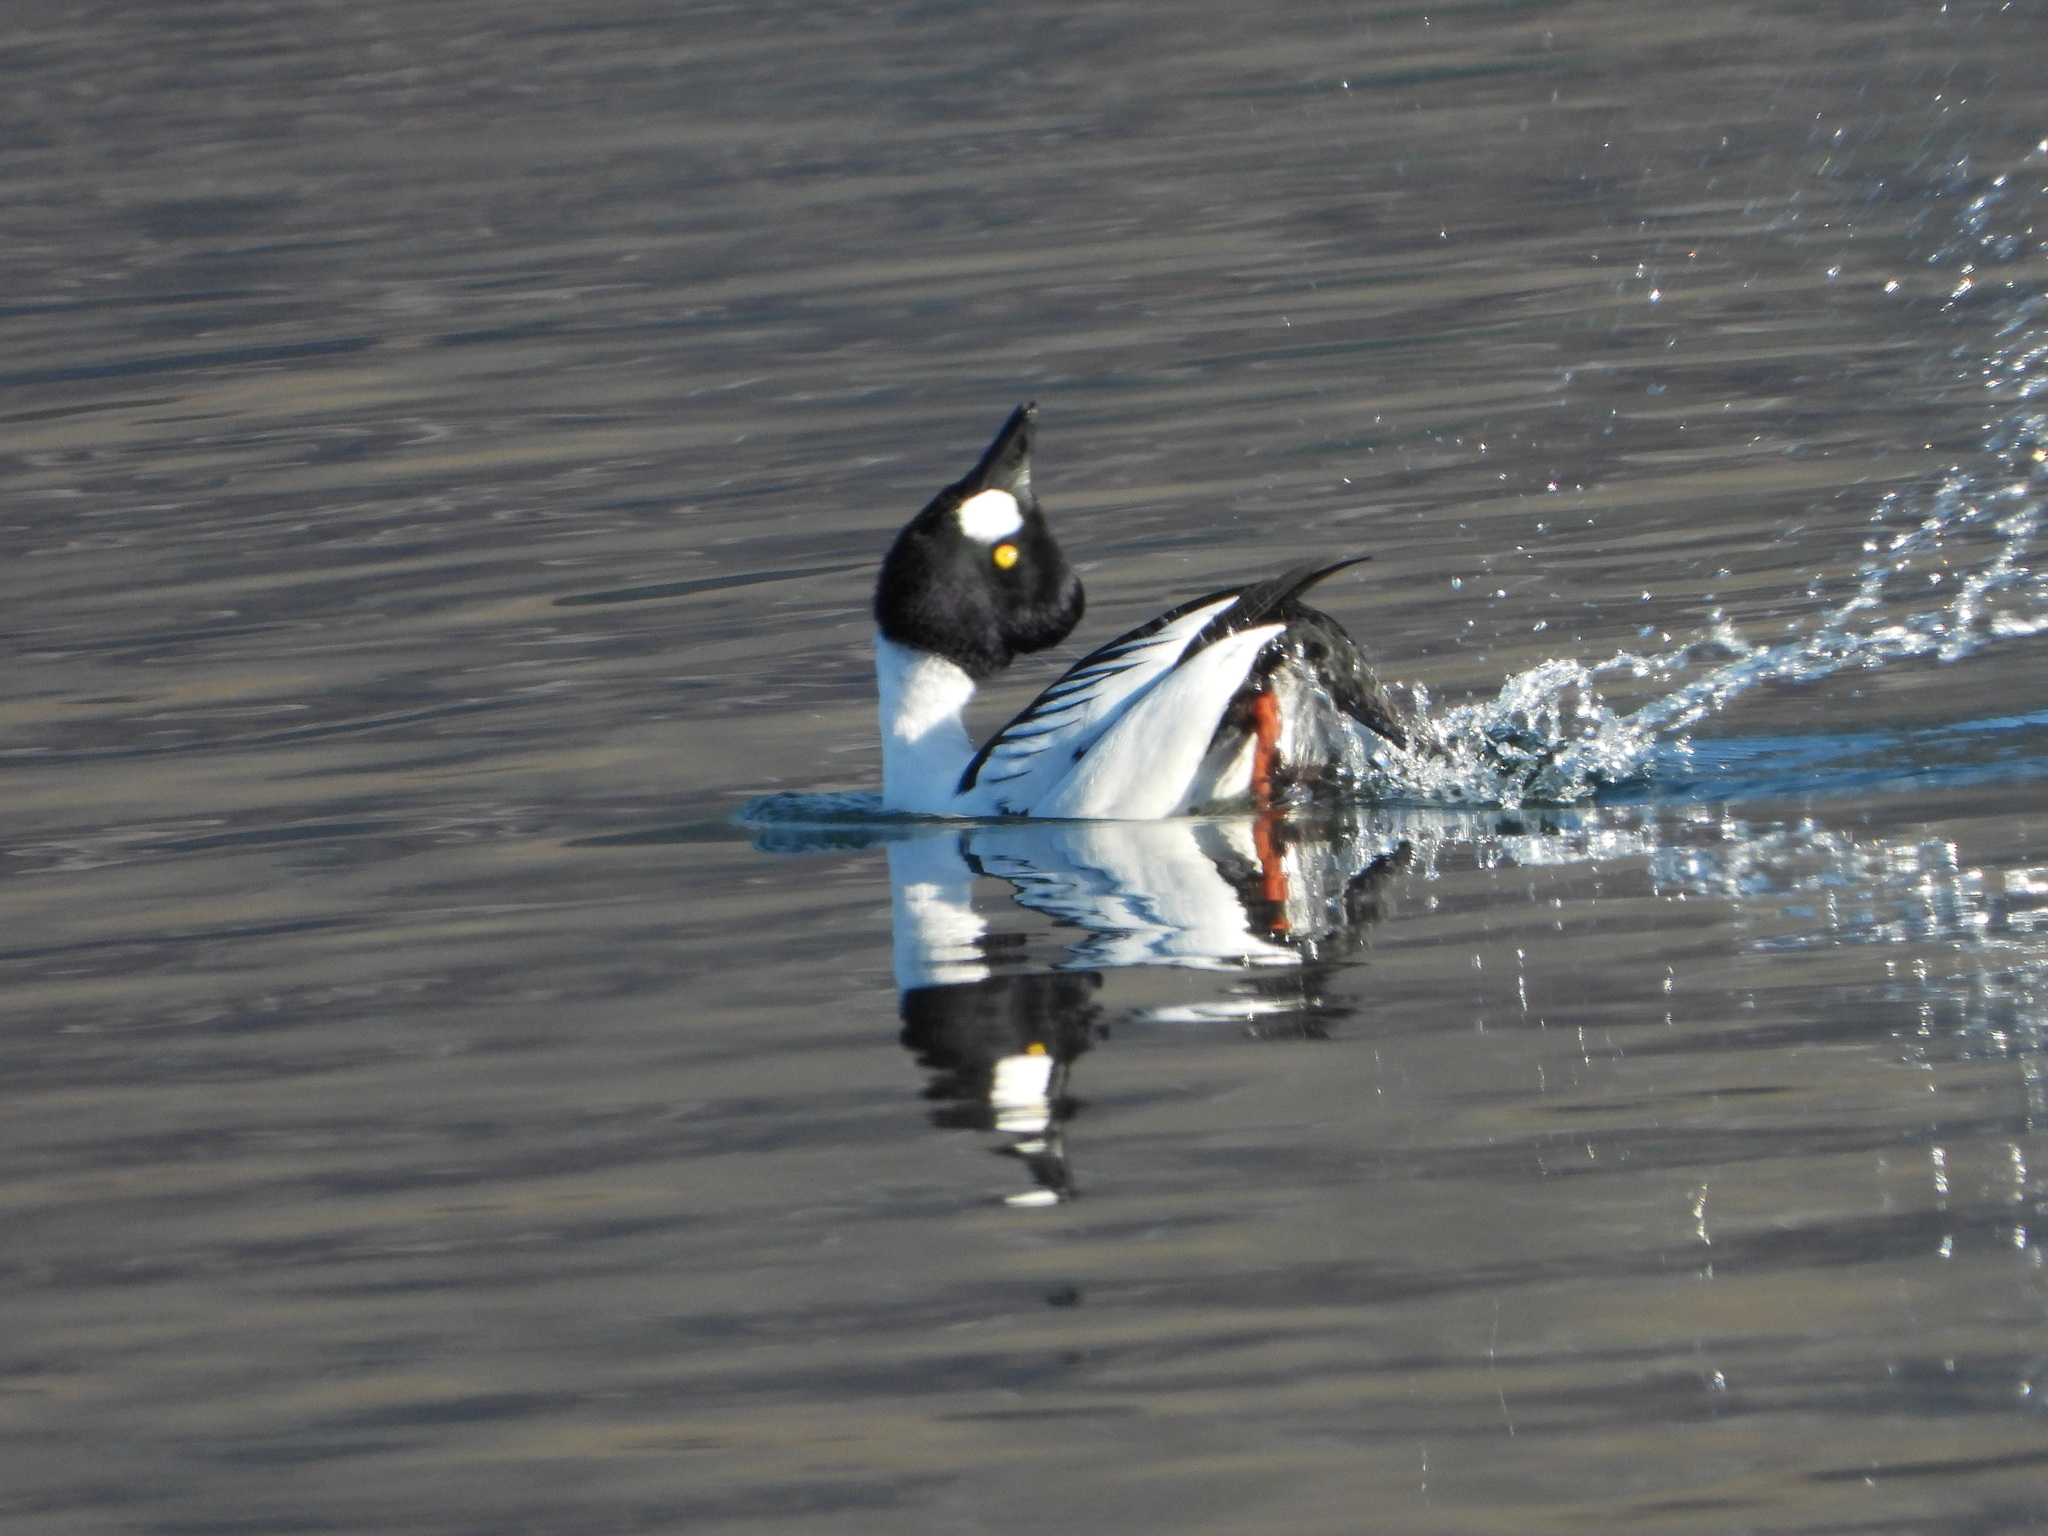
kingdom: Animalia
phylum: Chordata
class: Aves
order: Anseriformes
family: Anatidae
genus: Bucephala
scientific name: Bucephala clangula
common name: Common goldeneye
